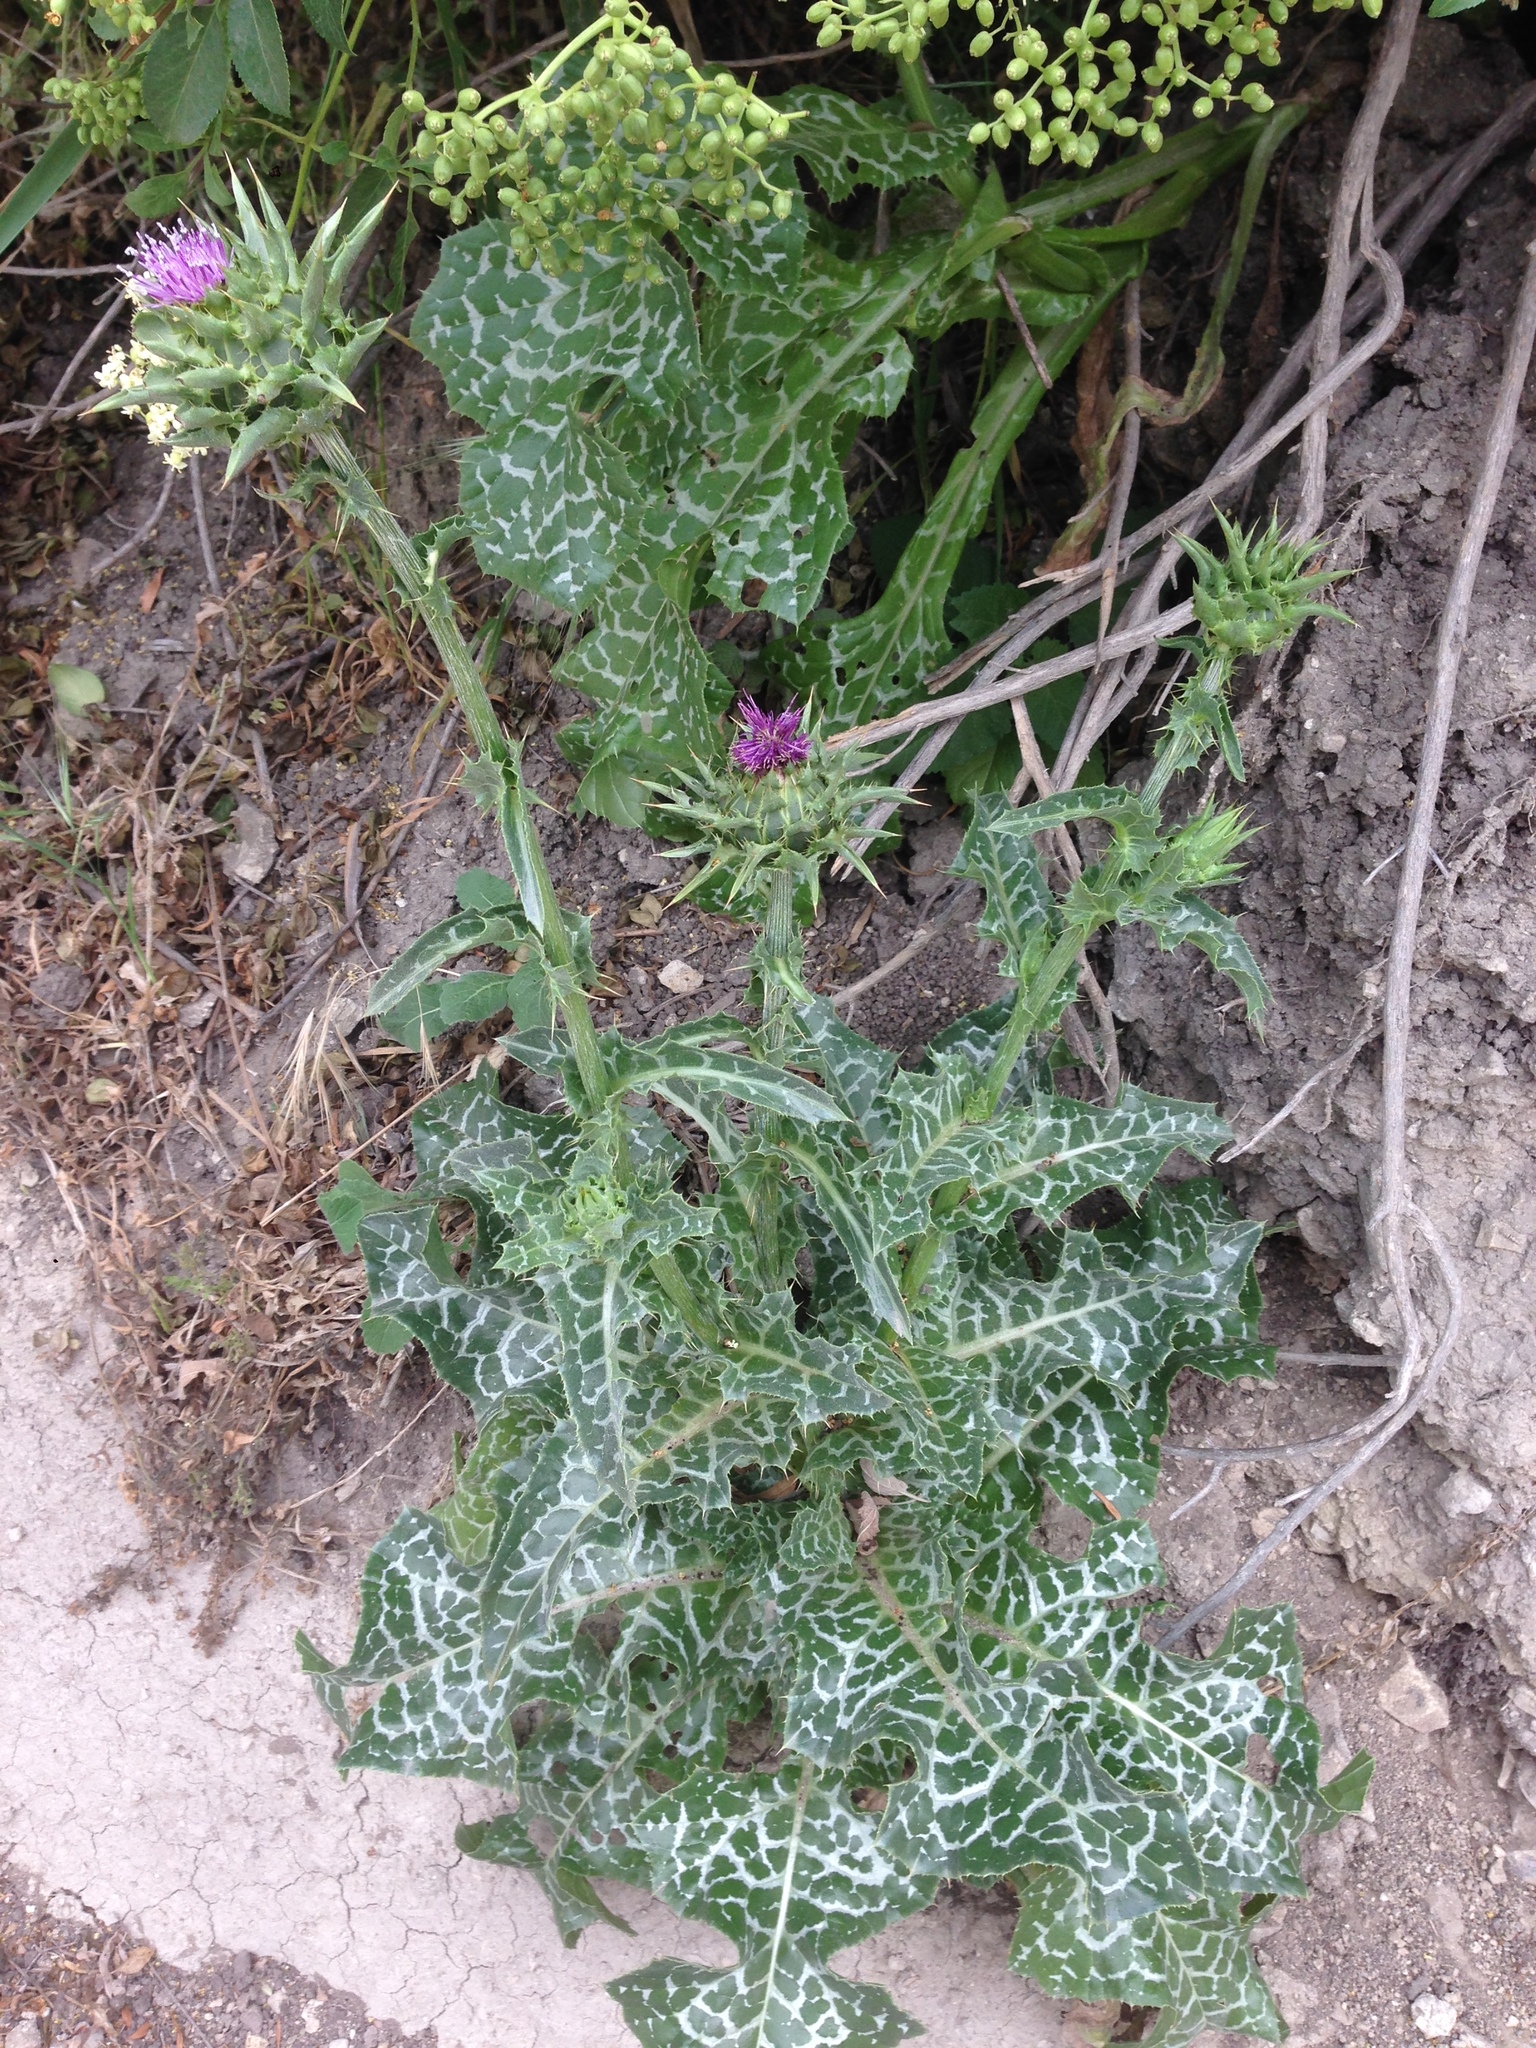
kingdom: Plantae
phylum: Tracheophyta
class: Magnoliopsida
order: Asterales
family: Asteraceae
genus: Silybum
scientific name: Silybum marianum
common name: Milk thistle
